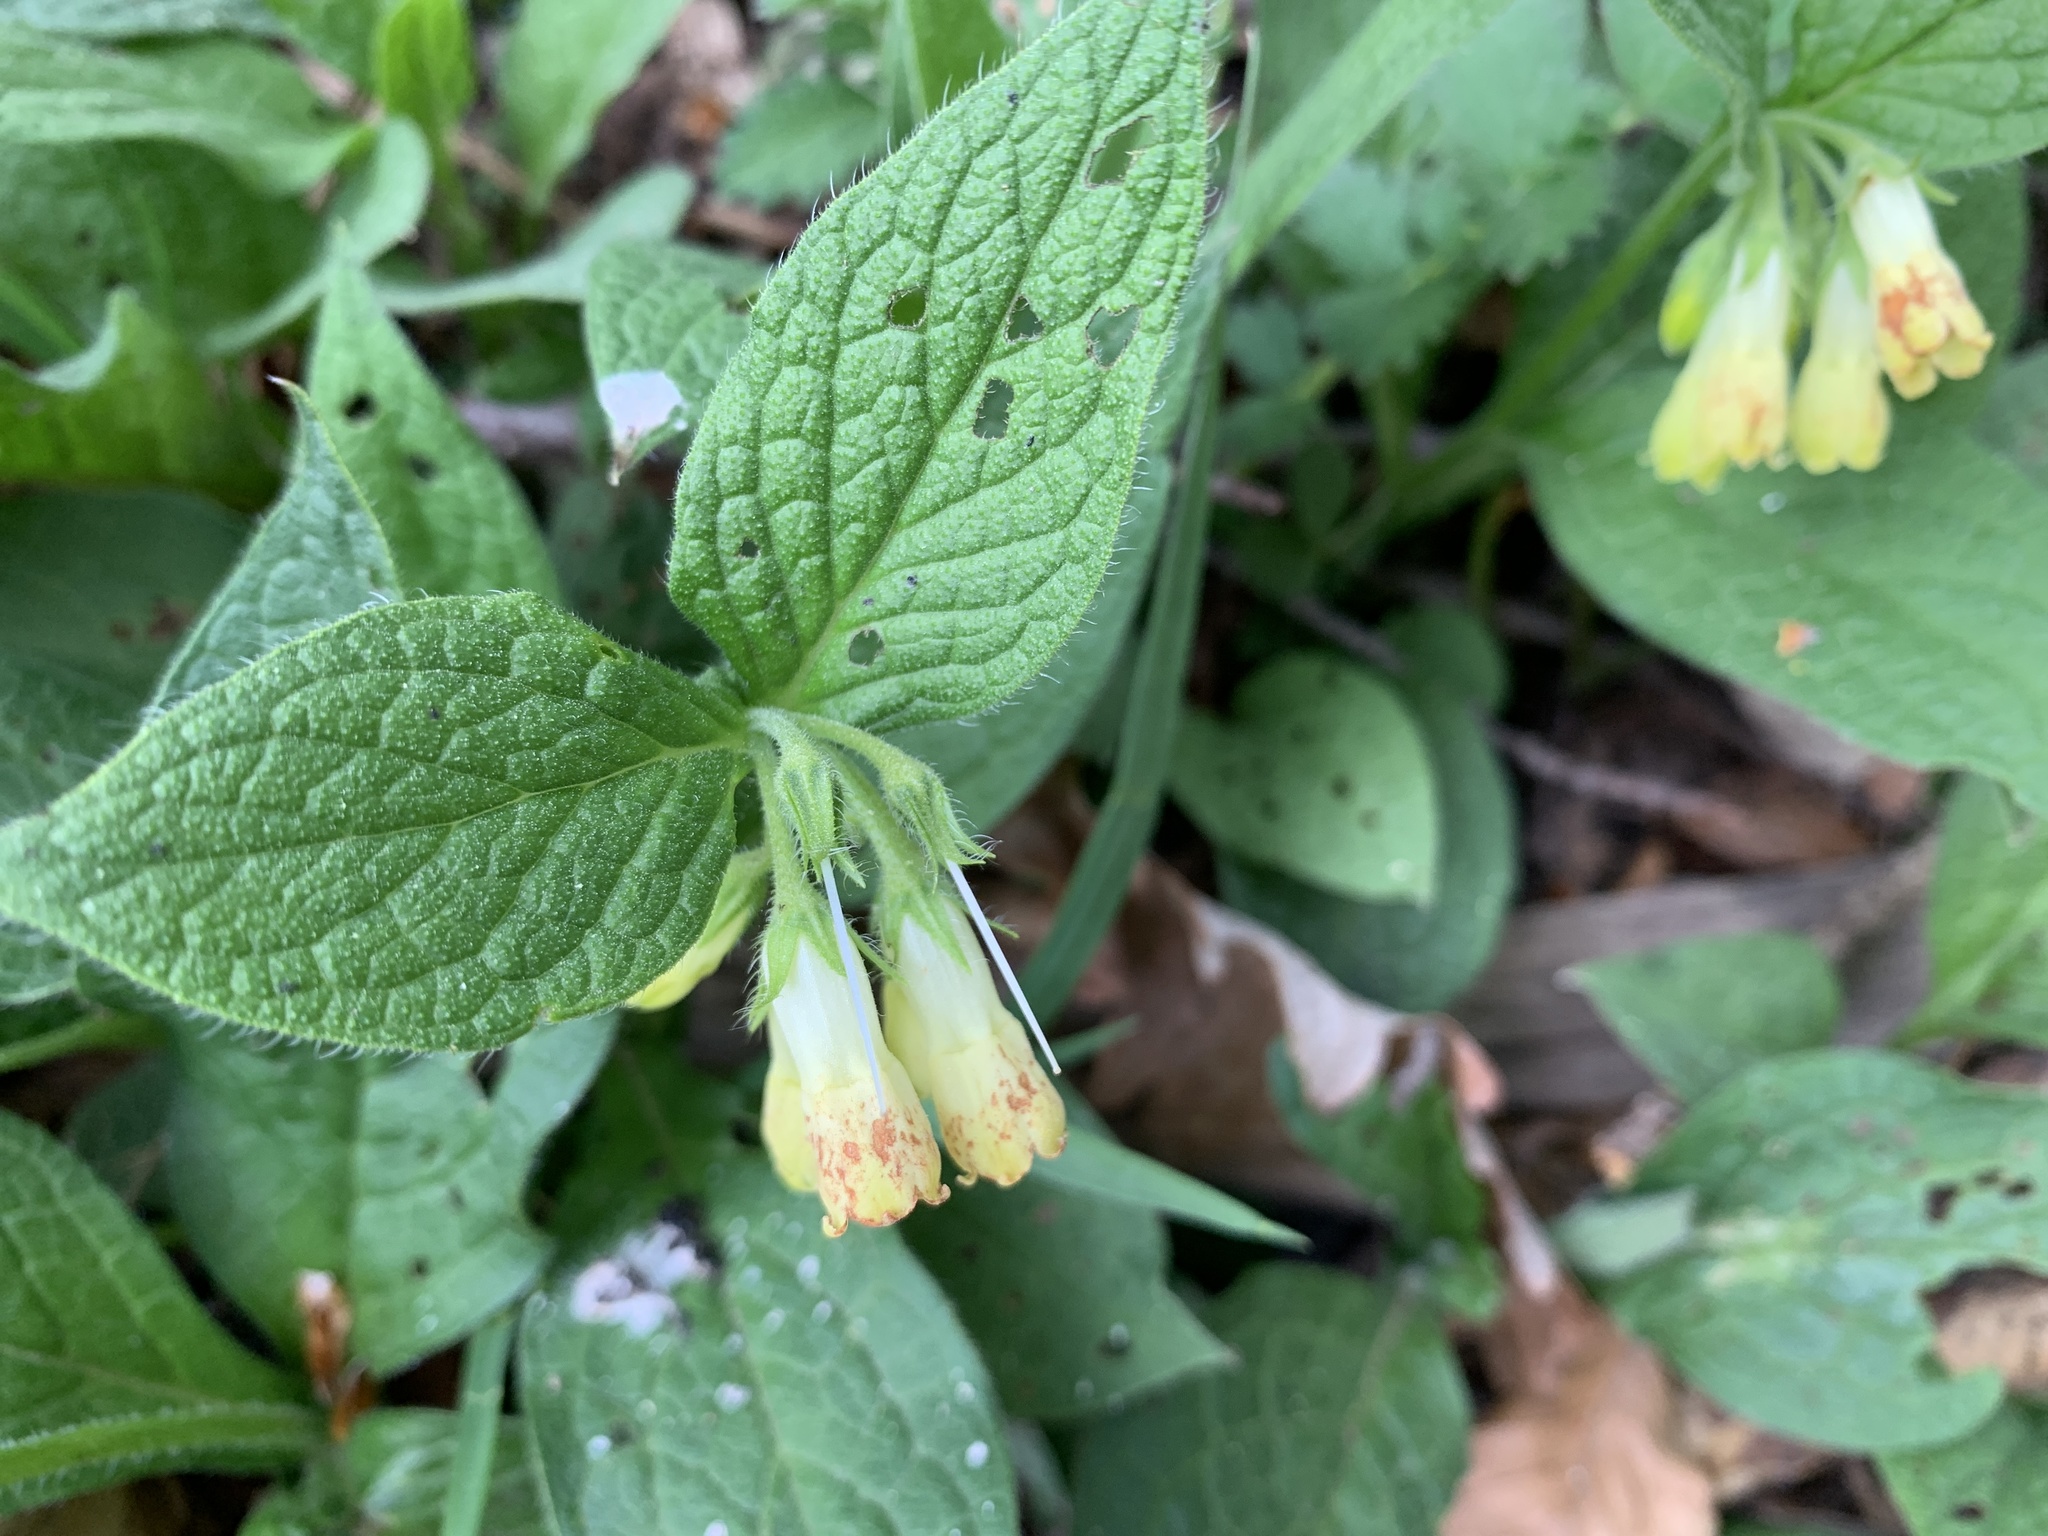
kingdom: Plantae
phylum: Tracheophyta
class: Magnoliopsida
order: Boraginales
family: Boraginaceae
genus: Symphytum
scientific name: Symphytum tuberosum
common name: Tuberous comfrey
